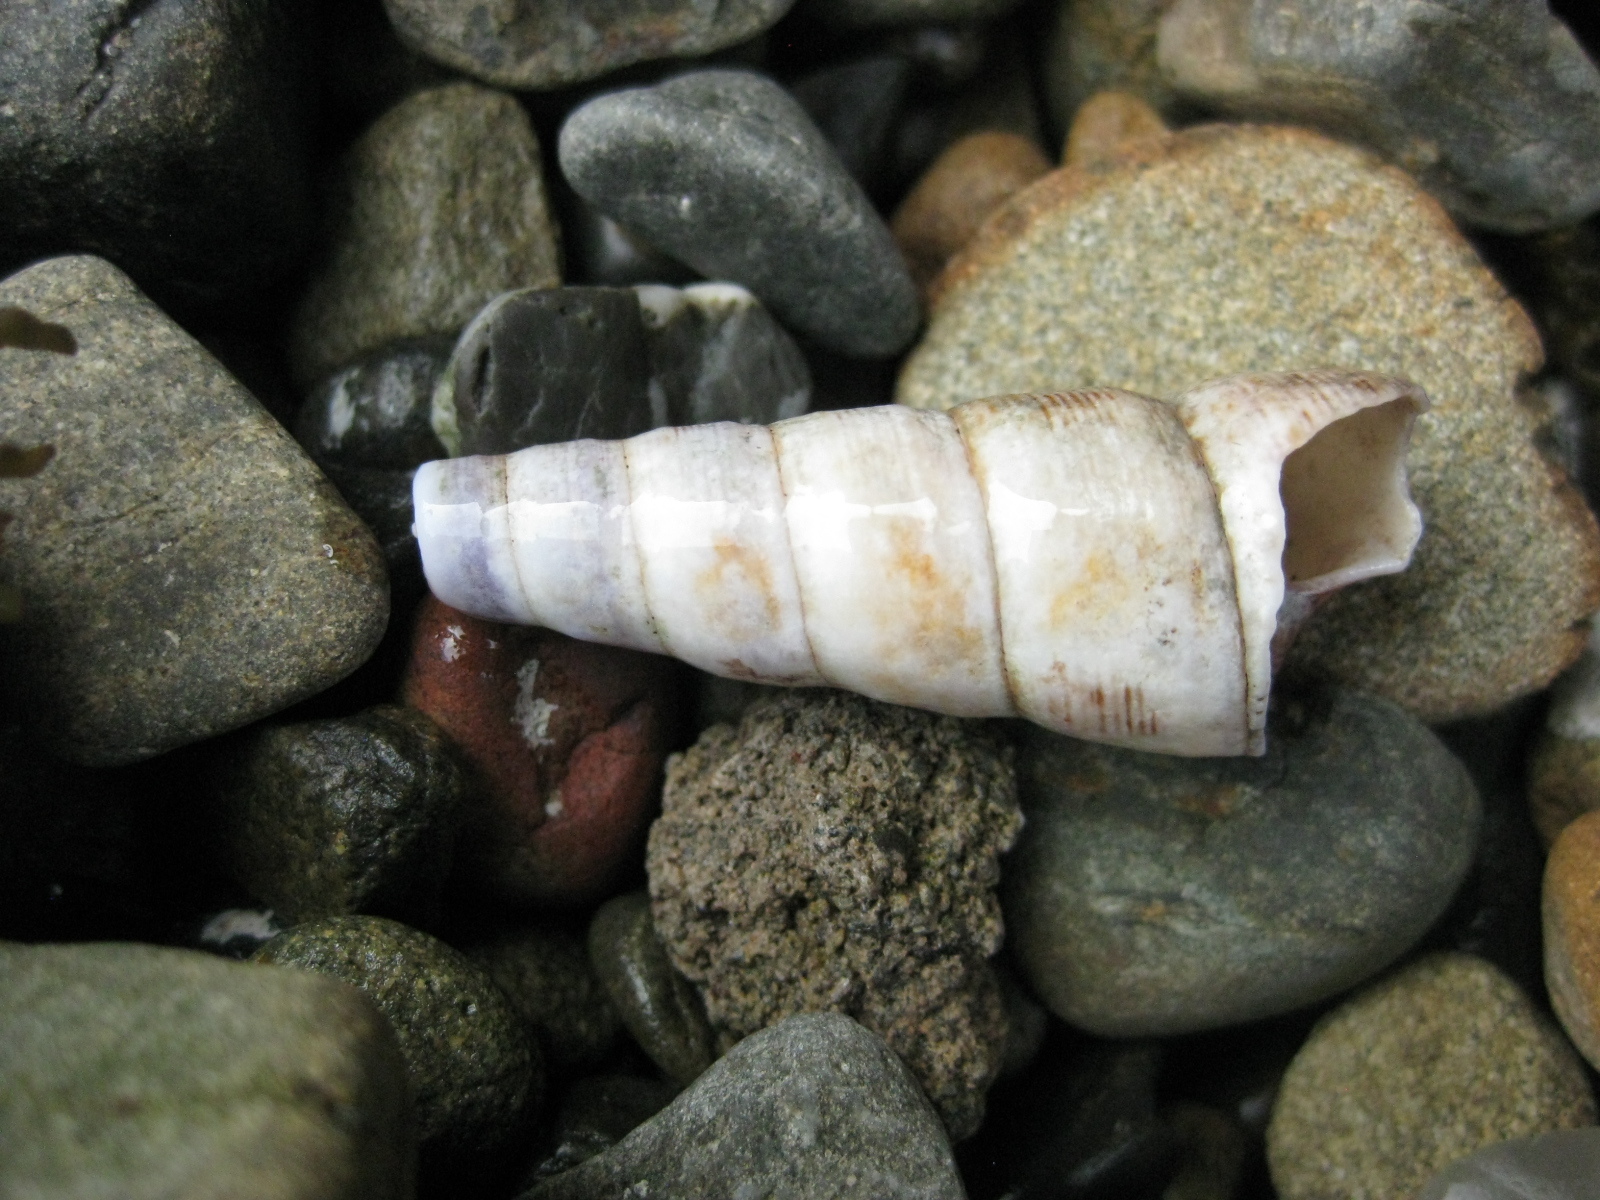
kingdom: Animalia
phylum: Mollusca
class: Gastropoda
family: Turritellidae
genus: Maoricolpus
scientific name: Maoricolpus roseus
